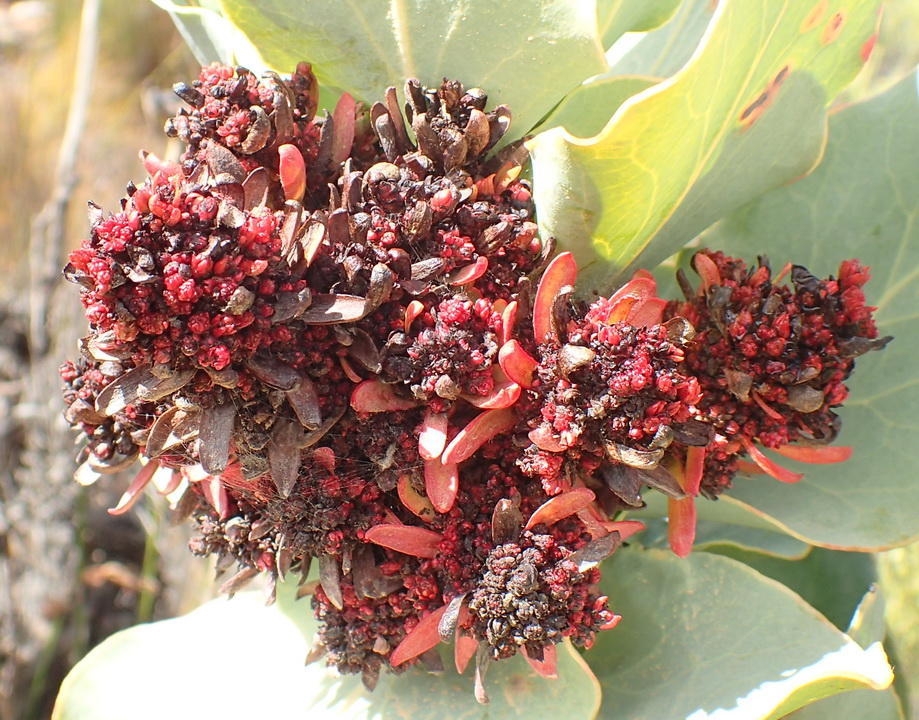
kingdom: Bacteria
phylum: Firmicutes
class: Bacilli
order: Acholeplasmatales
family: Acholeplasmataceae
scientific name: Acholeplasmataceae
